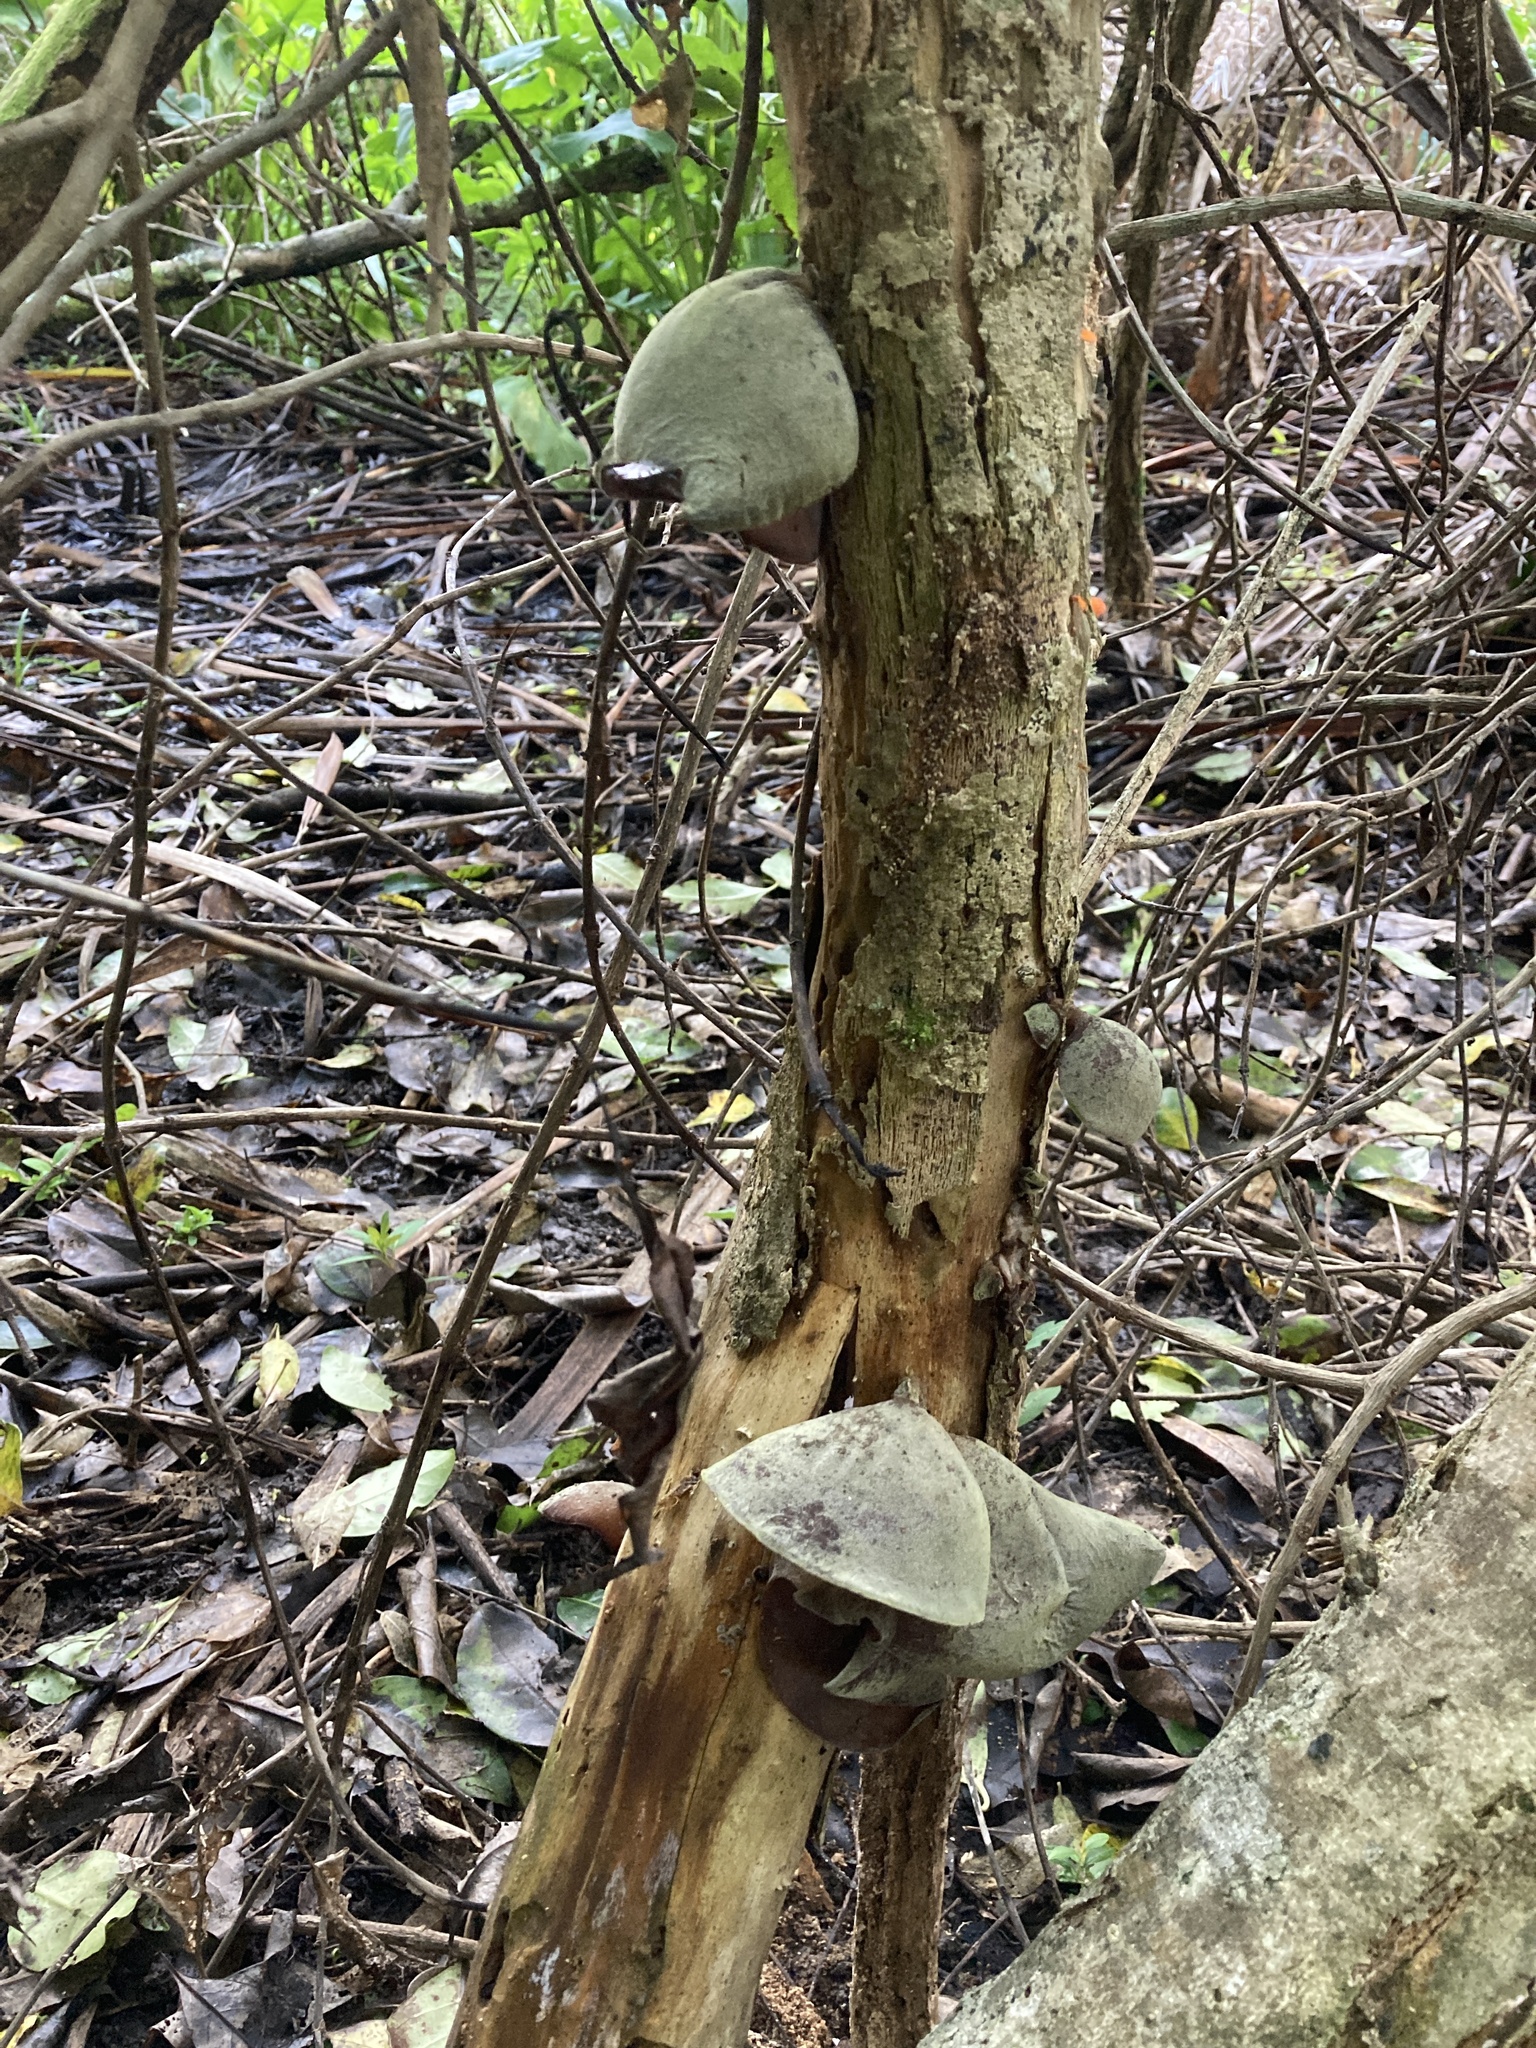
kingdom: Fungi
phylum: Basidiomycota
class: Agaricomycetes
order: Auriculariales
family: Auriculariaceae
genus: Auricularia
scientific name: Auricularia cornea
